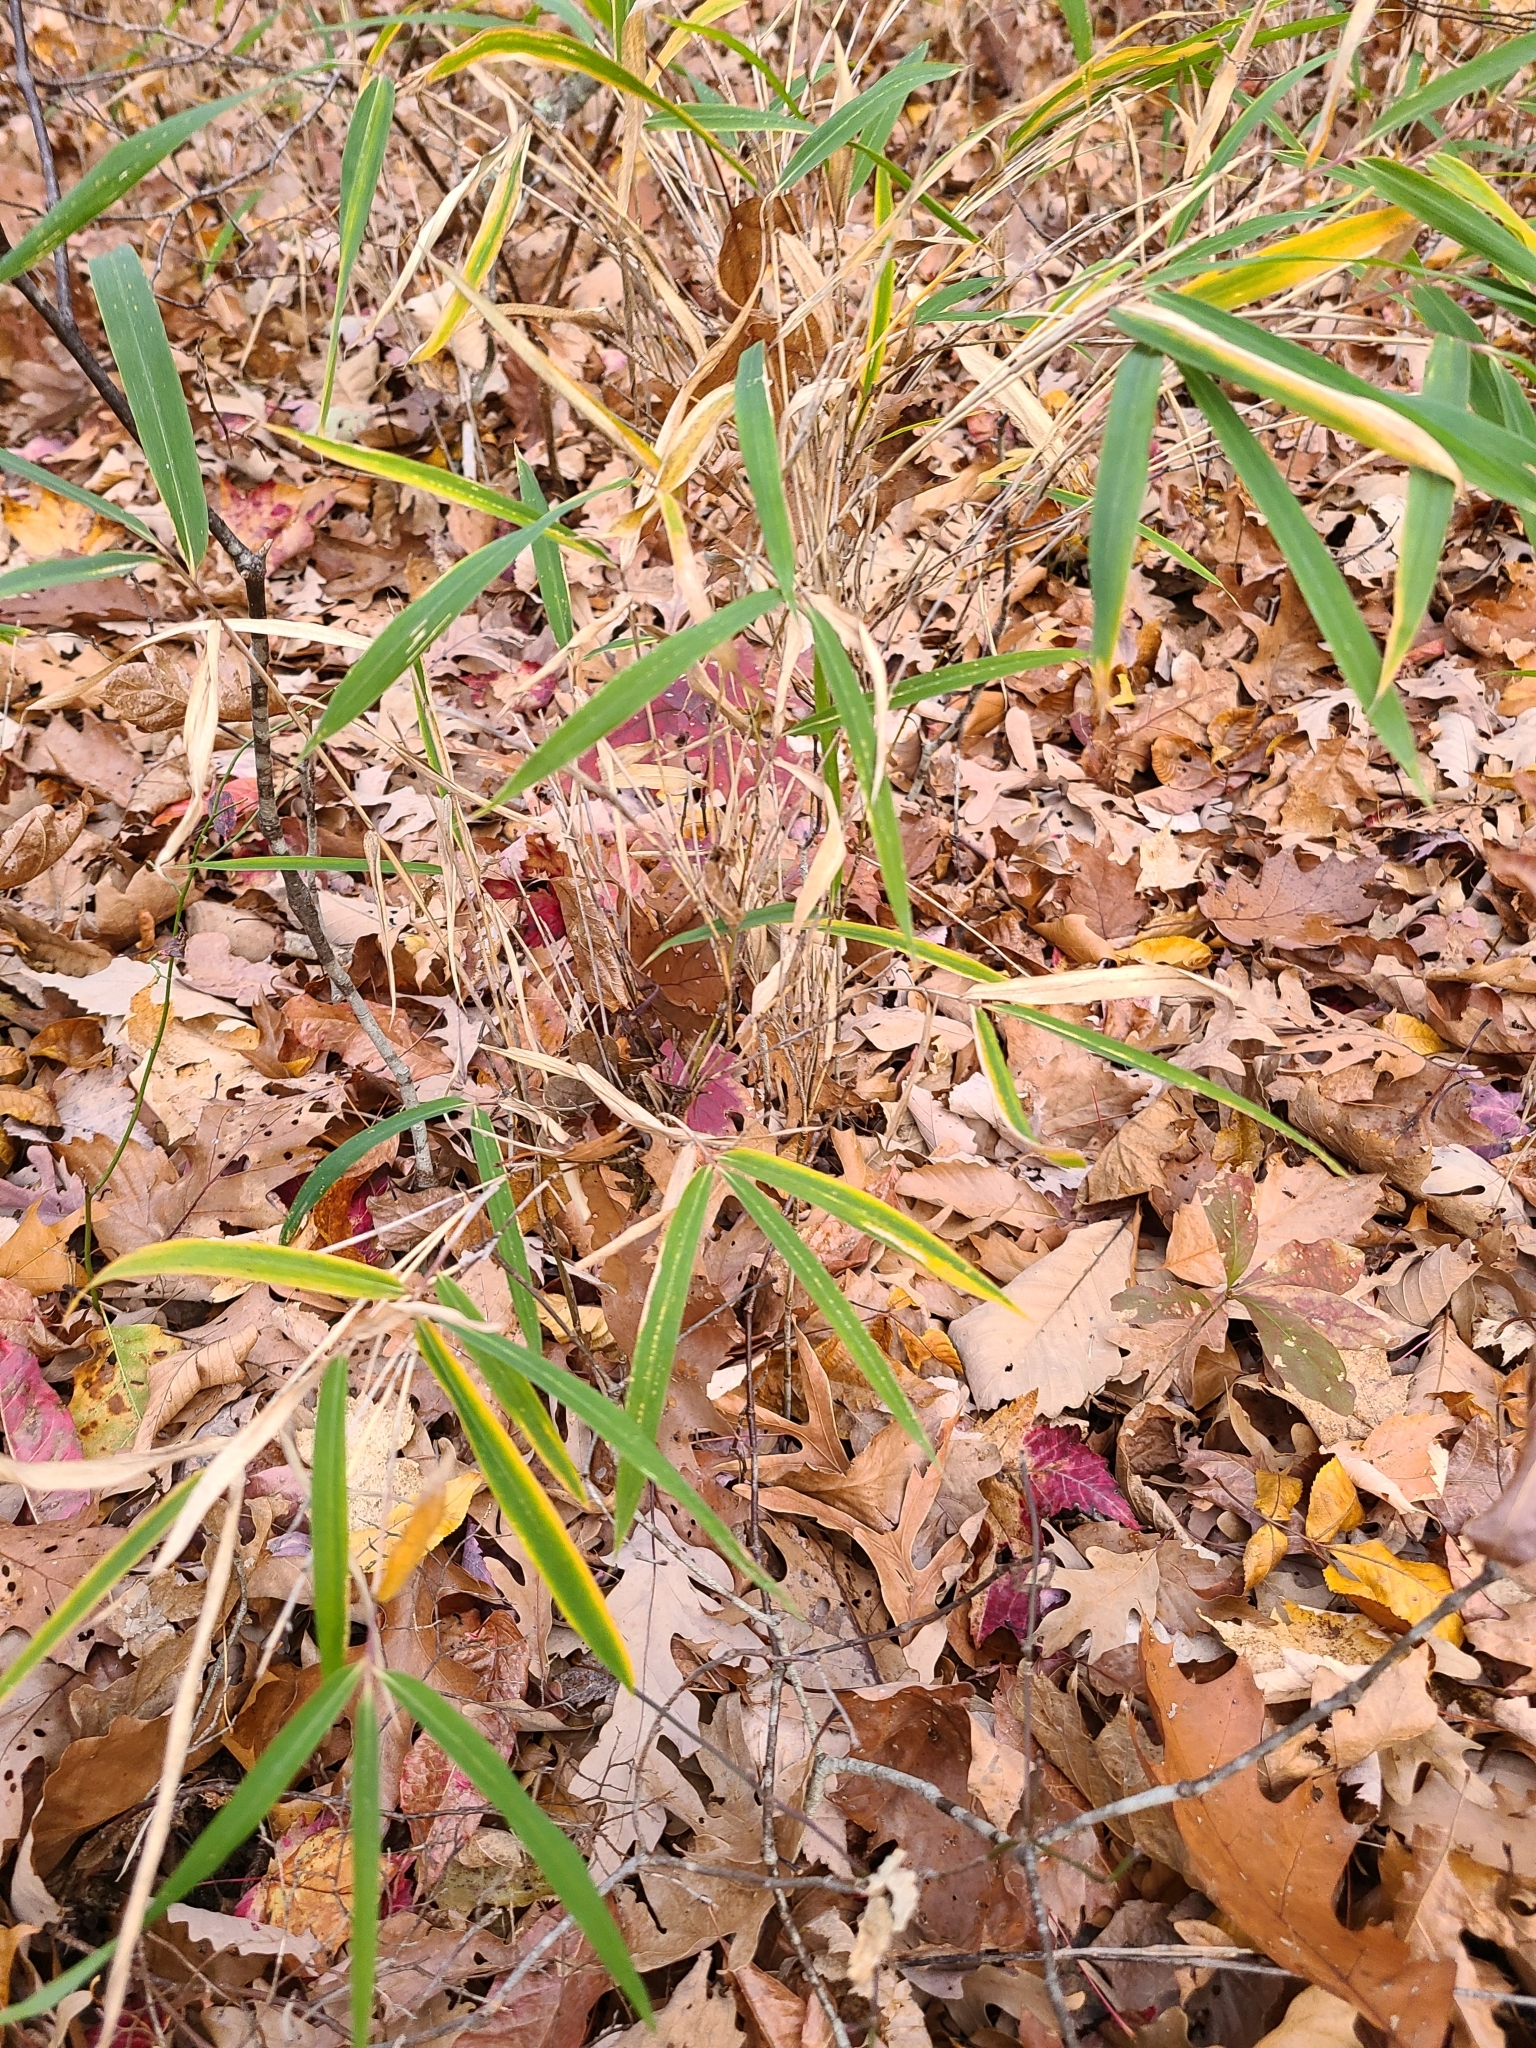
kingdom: Plantae
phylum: Tracheophyta
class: Liliopsida
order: Poales
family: Poaceae
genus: Arundinaria
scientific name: Arundinaria appalachiana
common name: Hill cane
